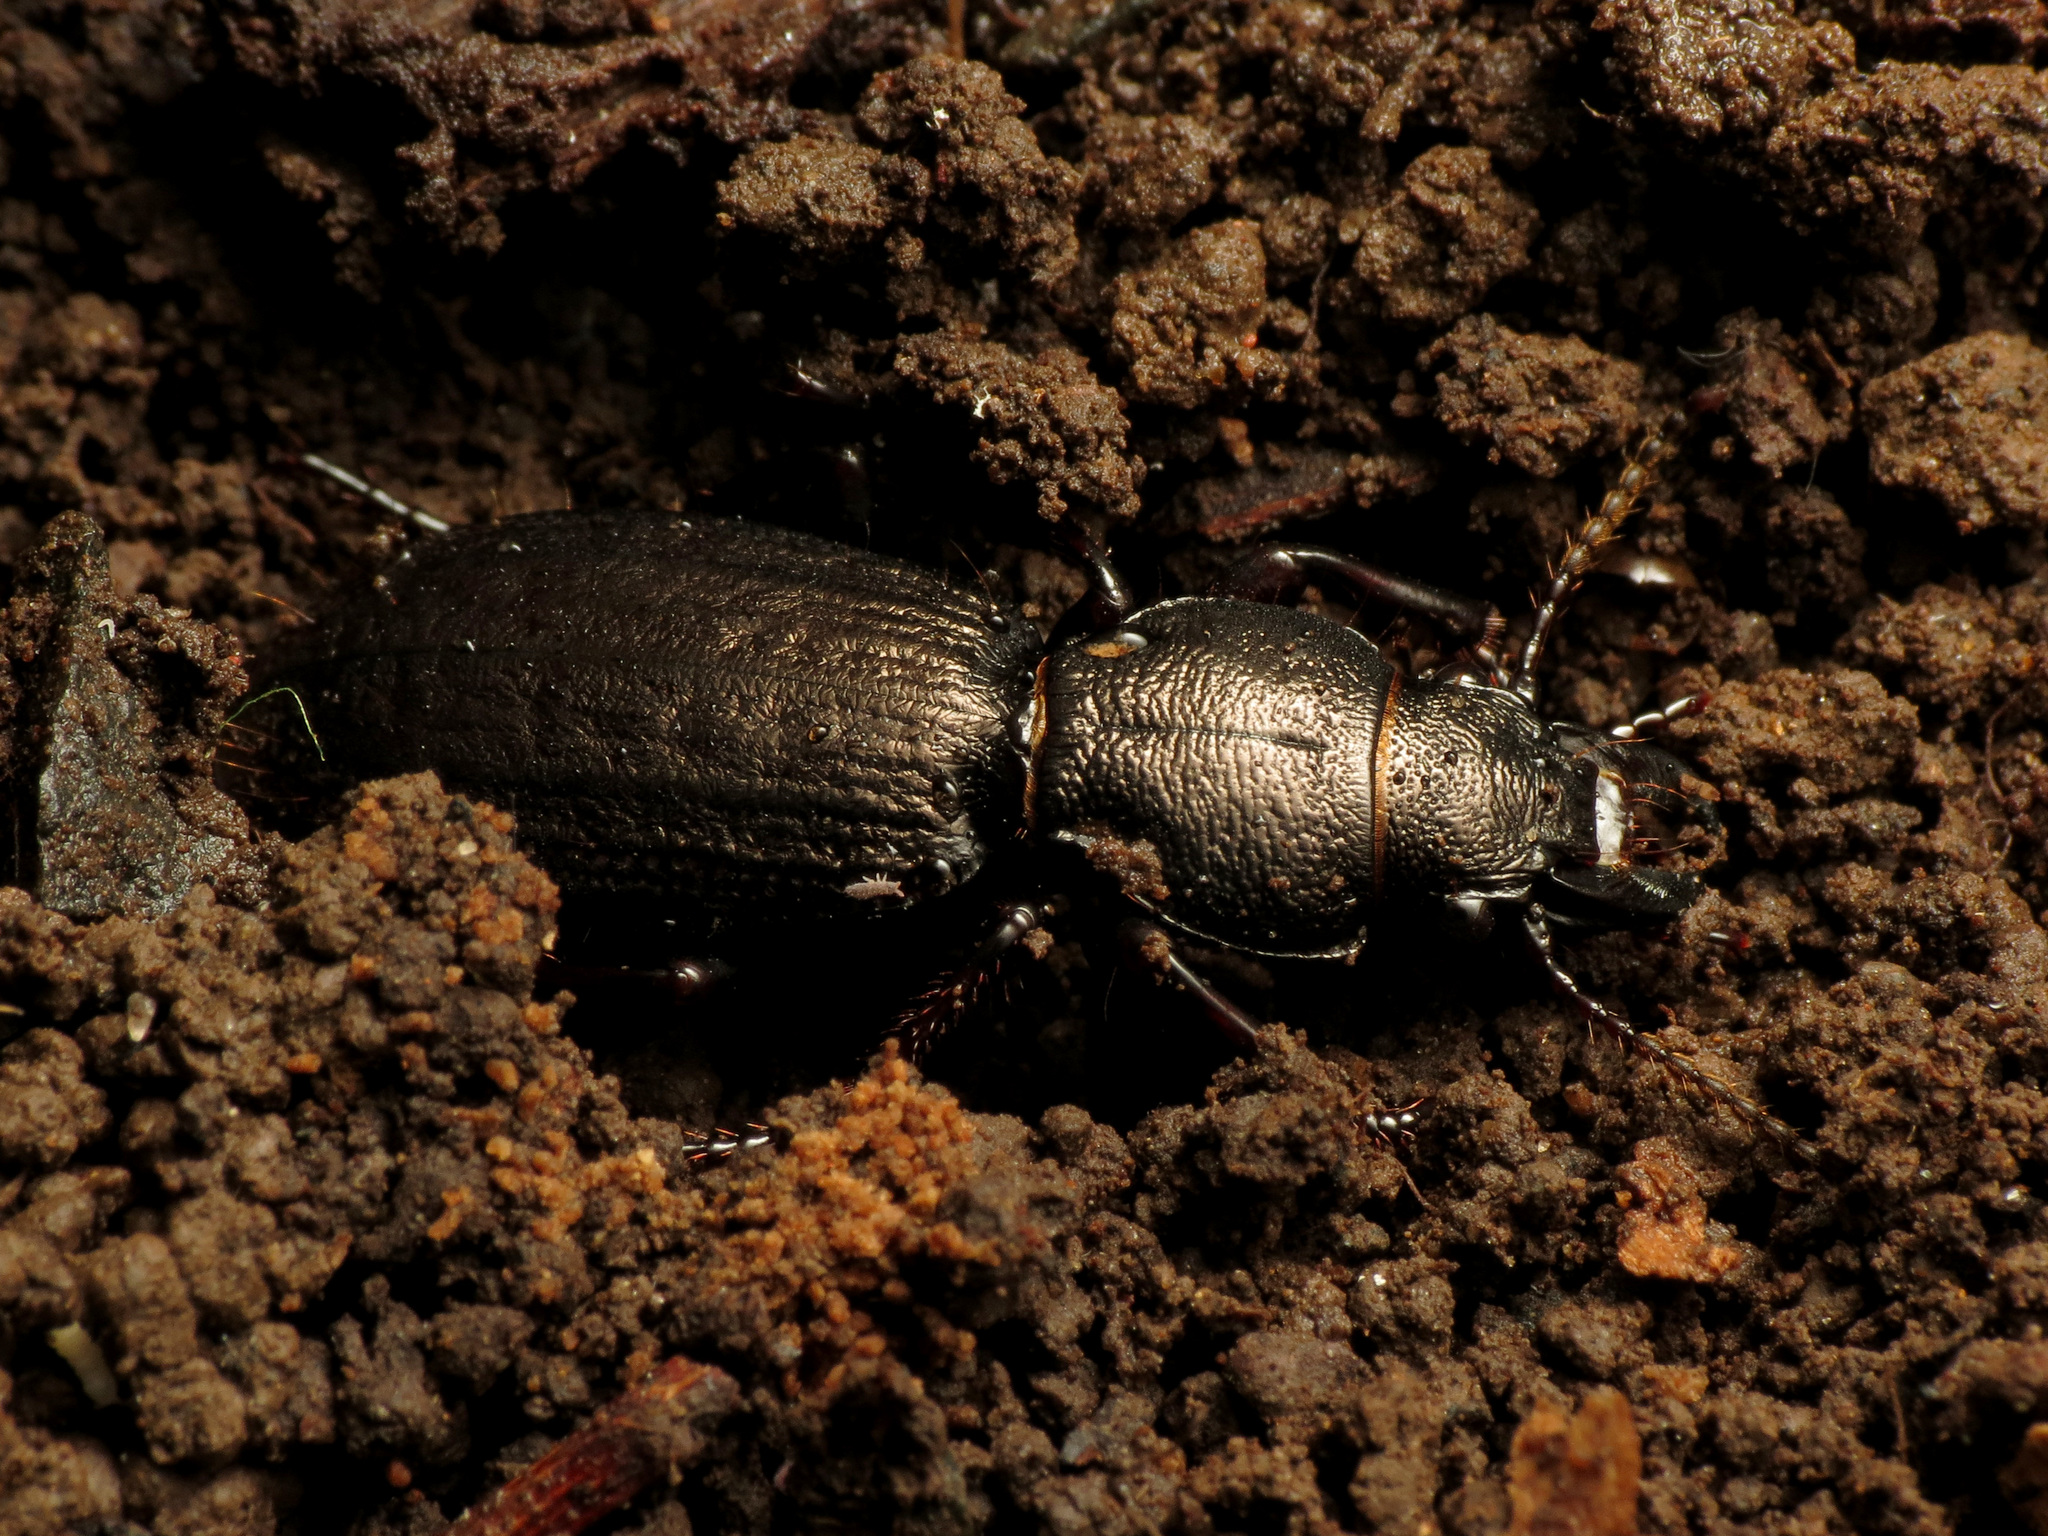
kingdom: Animalia
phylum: Arthropoda
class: Insecta
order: Coleoptera
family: Carabidae
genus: Mecodema
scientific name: Mecodema sculpturatum
